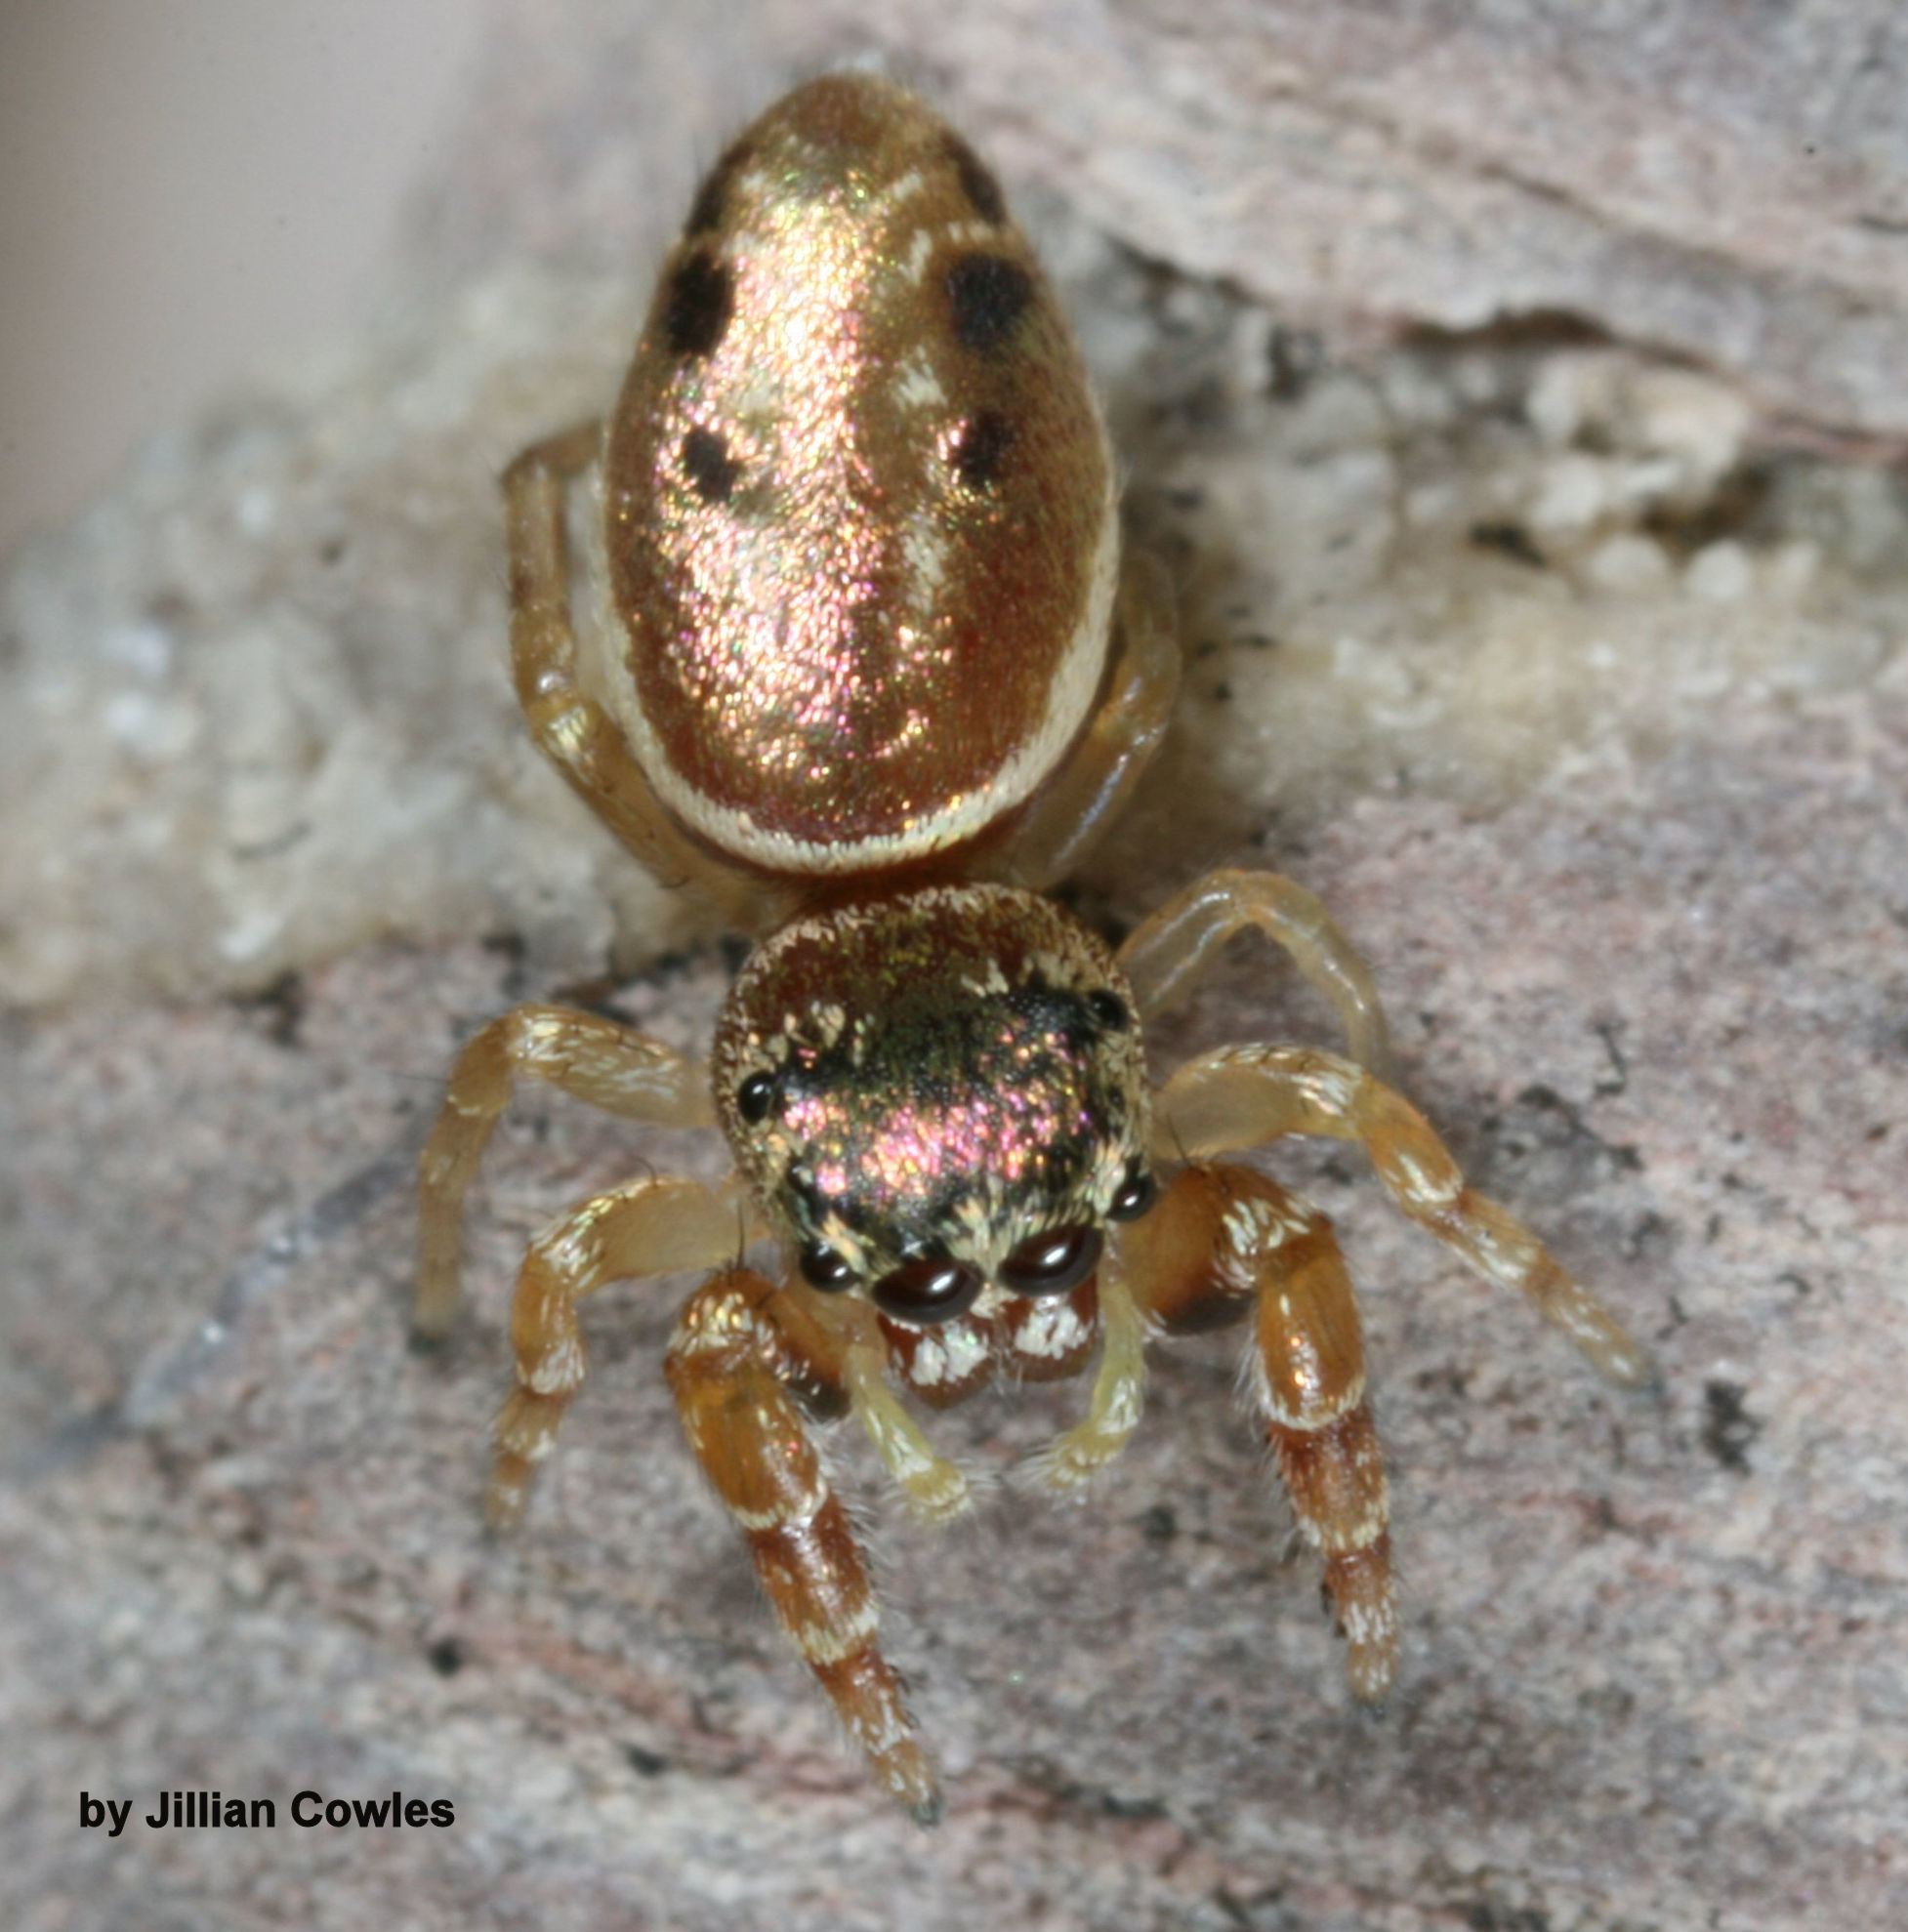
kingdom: Animalia
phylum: Arthropoda
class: Arachnida
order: Araneae
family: Salticidae
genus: Sassacus
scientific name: Sassacus vitis
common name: Jumping spiders
